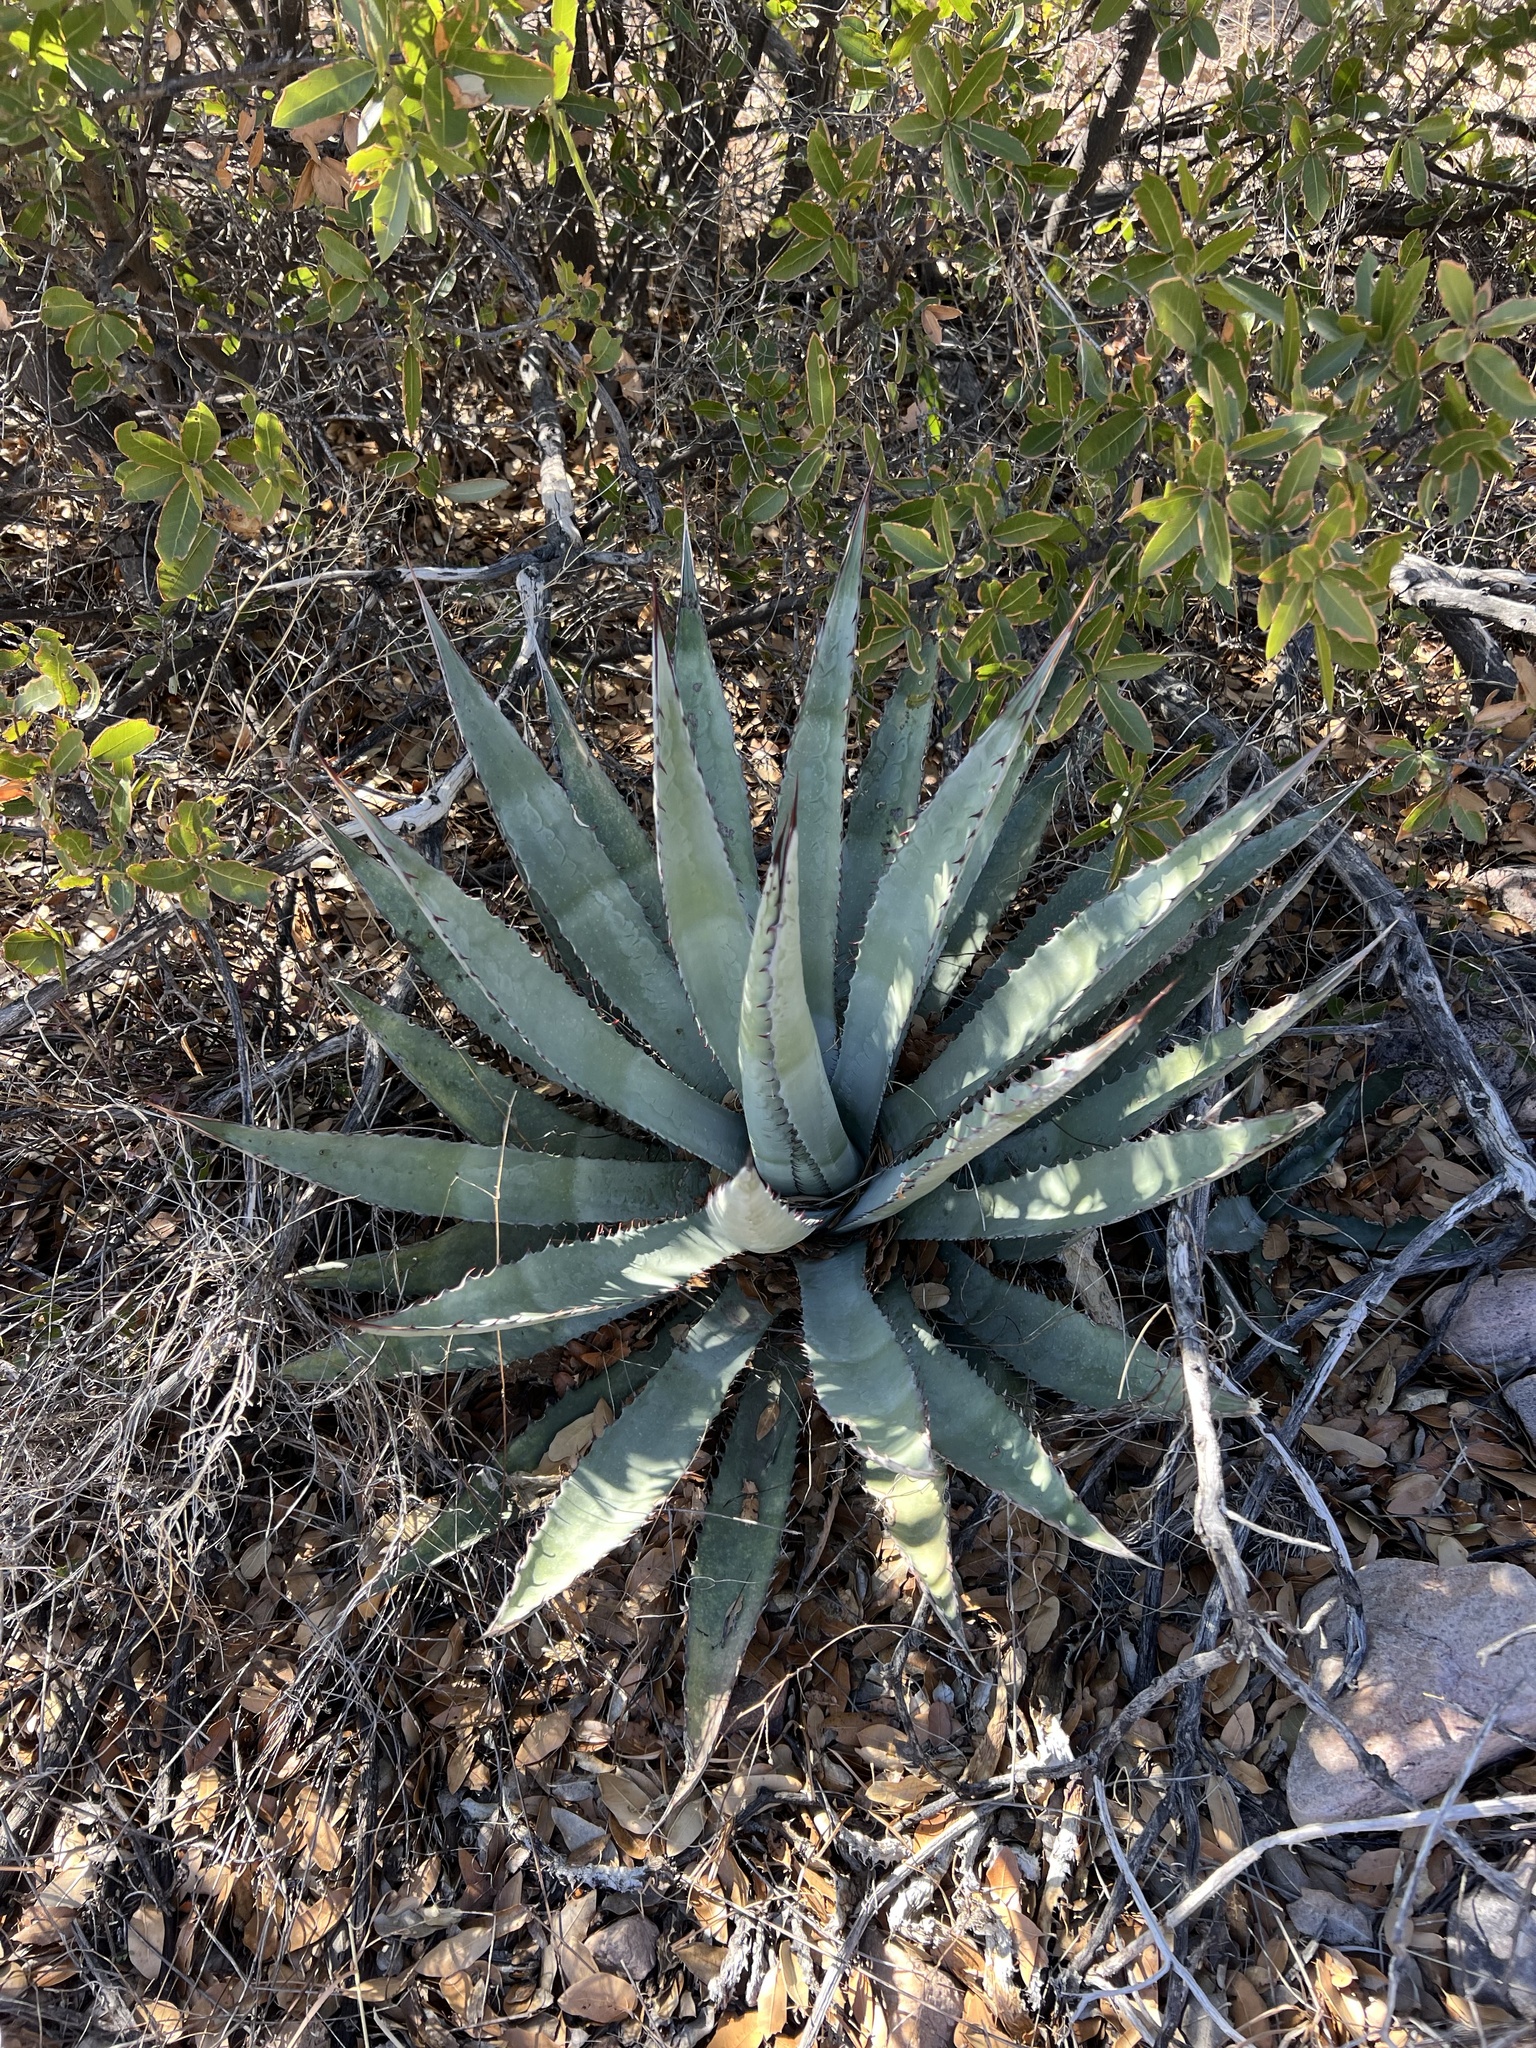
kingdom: Plantae
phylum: Tracheophyta
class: Liliopsida
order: Asparagales
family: Asparagaceae
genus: Agave
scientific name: Agave palmeri
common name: Palmer agave
